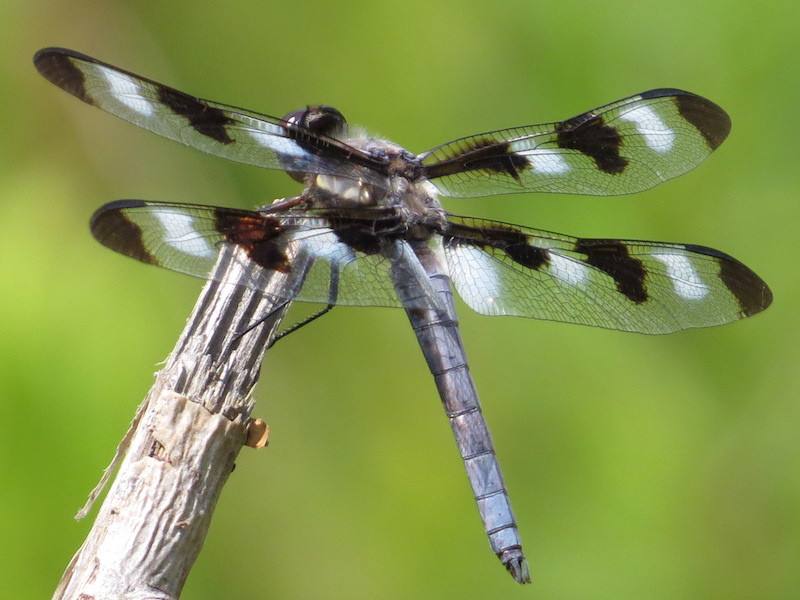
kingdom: Animalia
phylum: Arthropoda
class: Insecta
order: Odonata
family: Libellulidae
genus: Libellula
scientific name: Libellula pulchella
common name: Twelve-spotted skimmer
